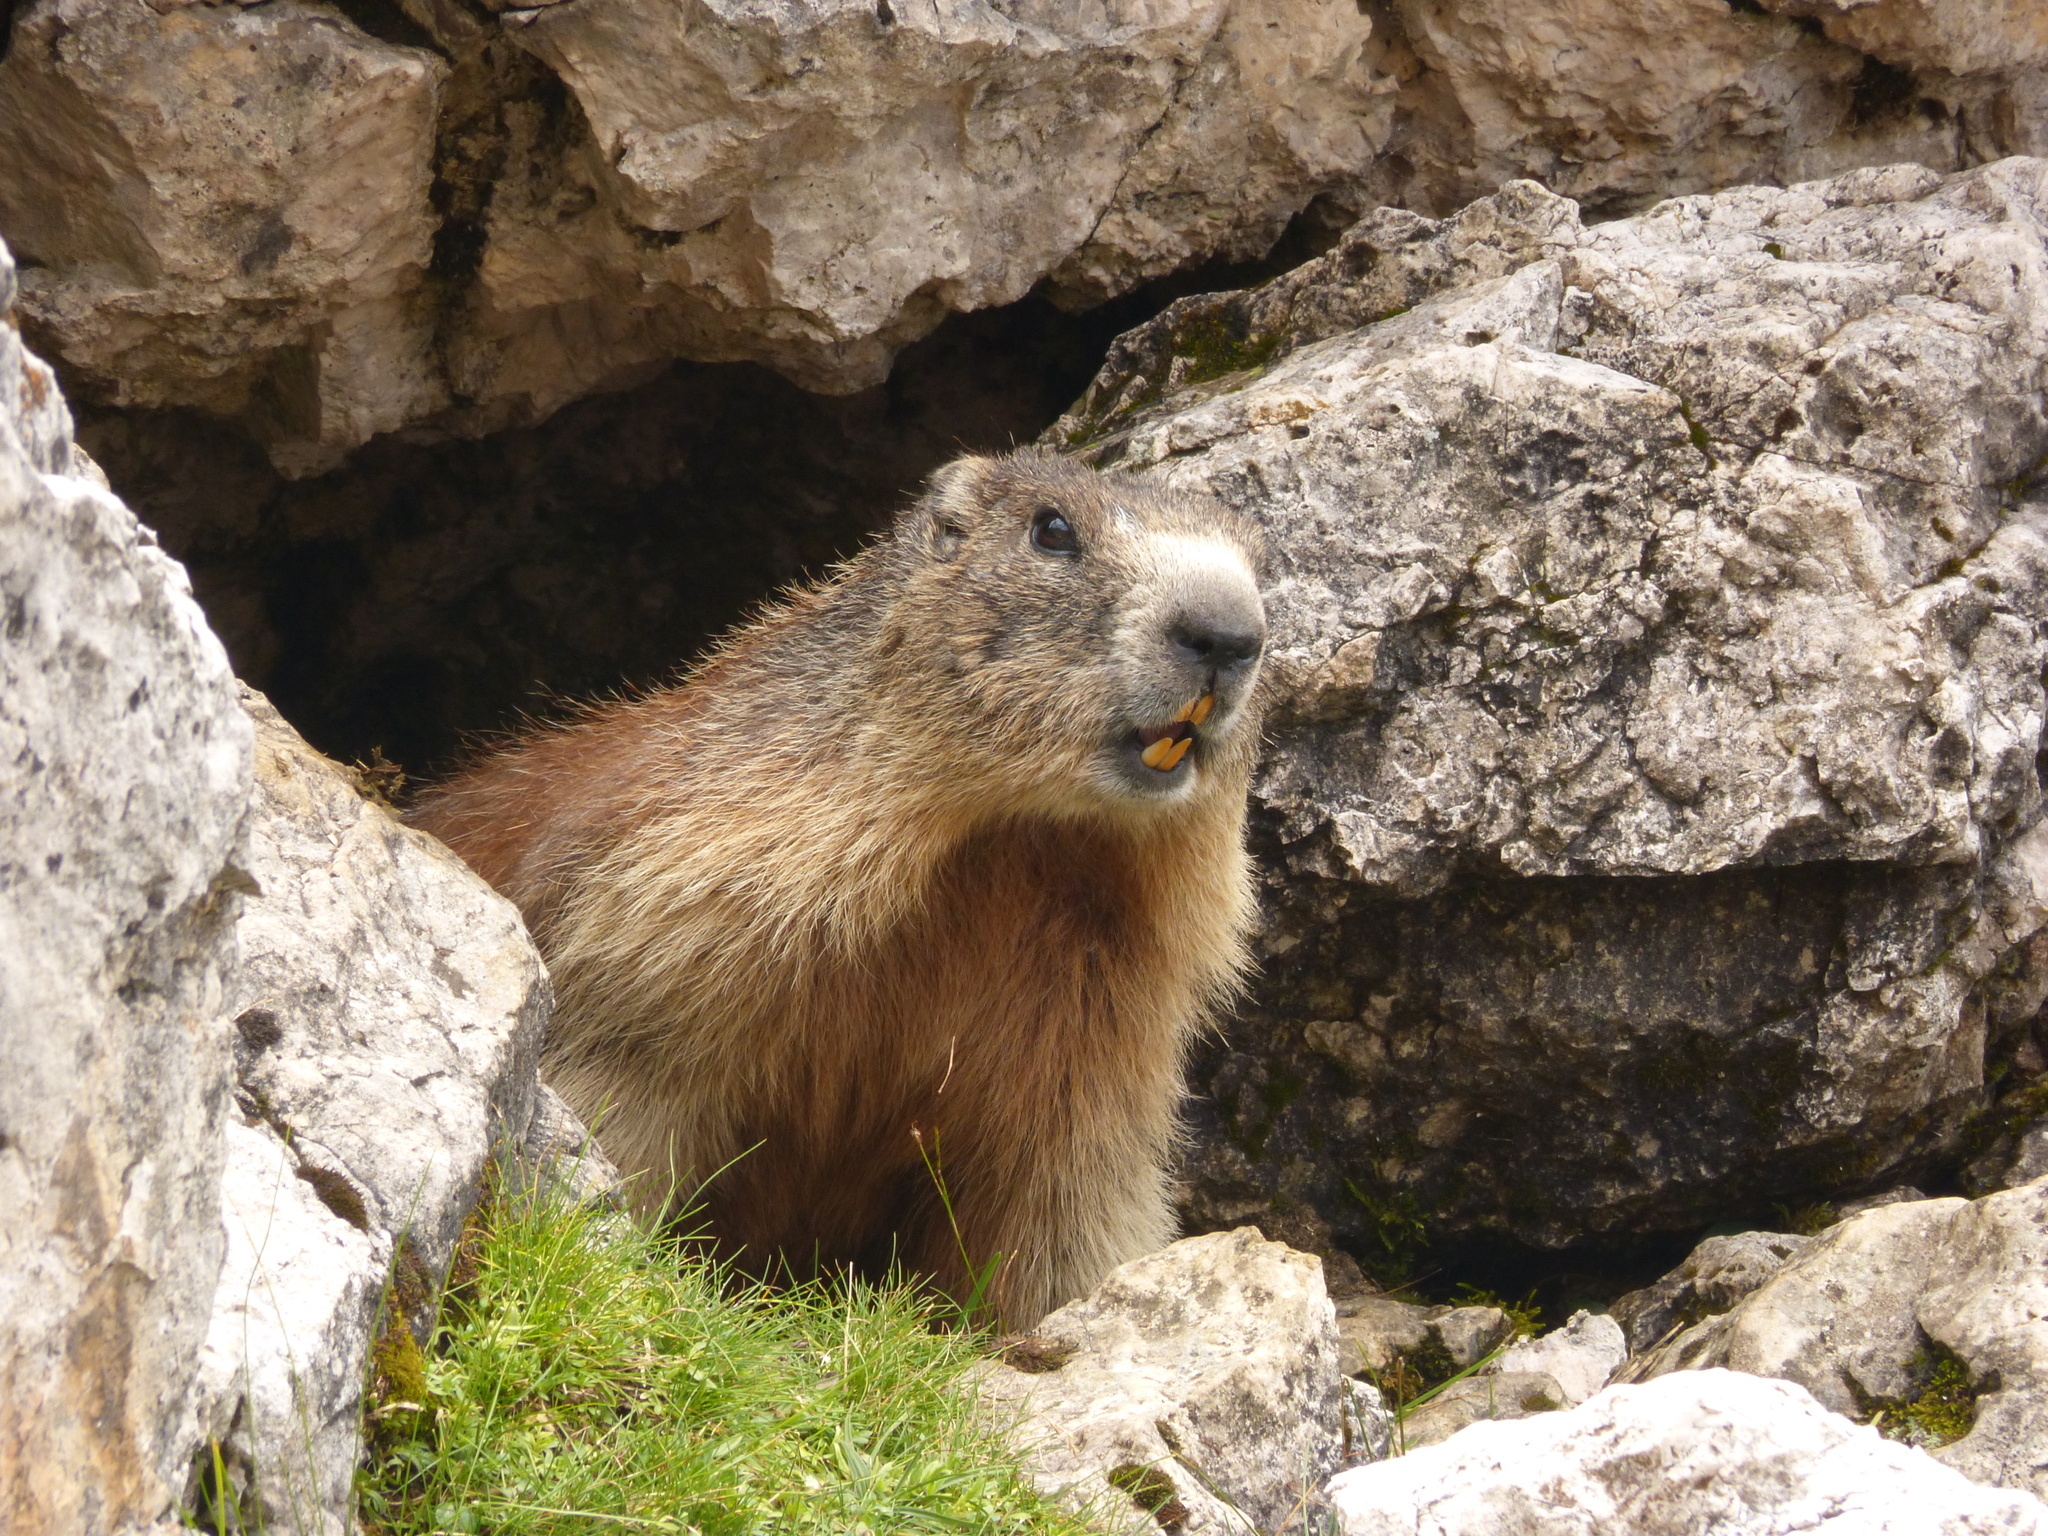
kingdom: Animalia
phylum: Chordata
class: Mammalia
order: Rodentia
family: Sciuridae
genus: Marmota
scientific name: Marmota marmota
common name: Alpine marmot
